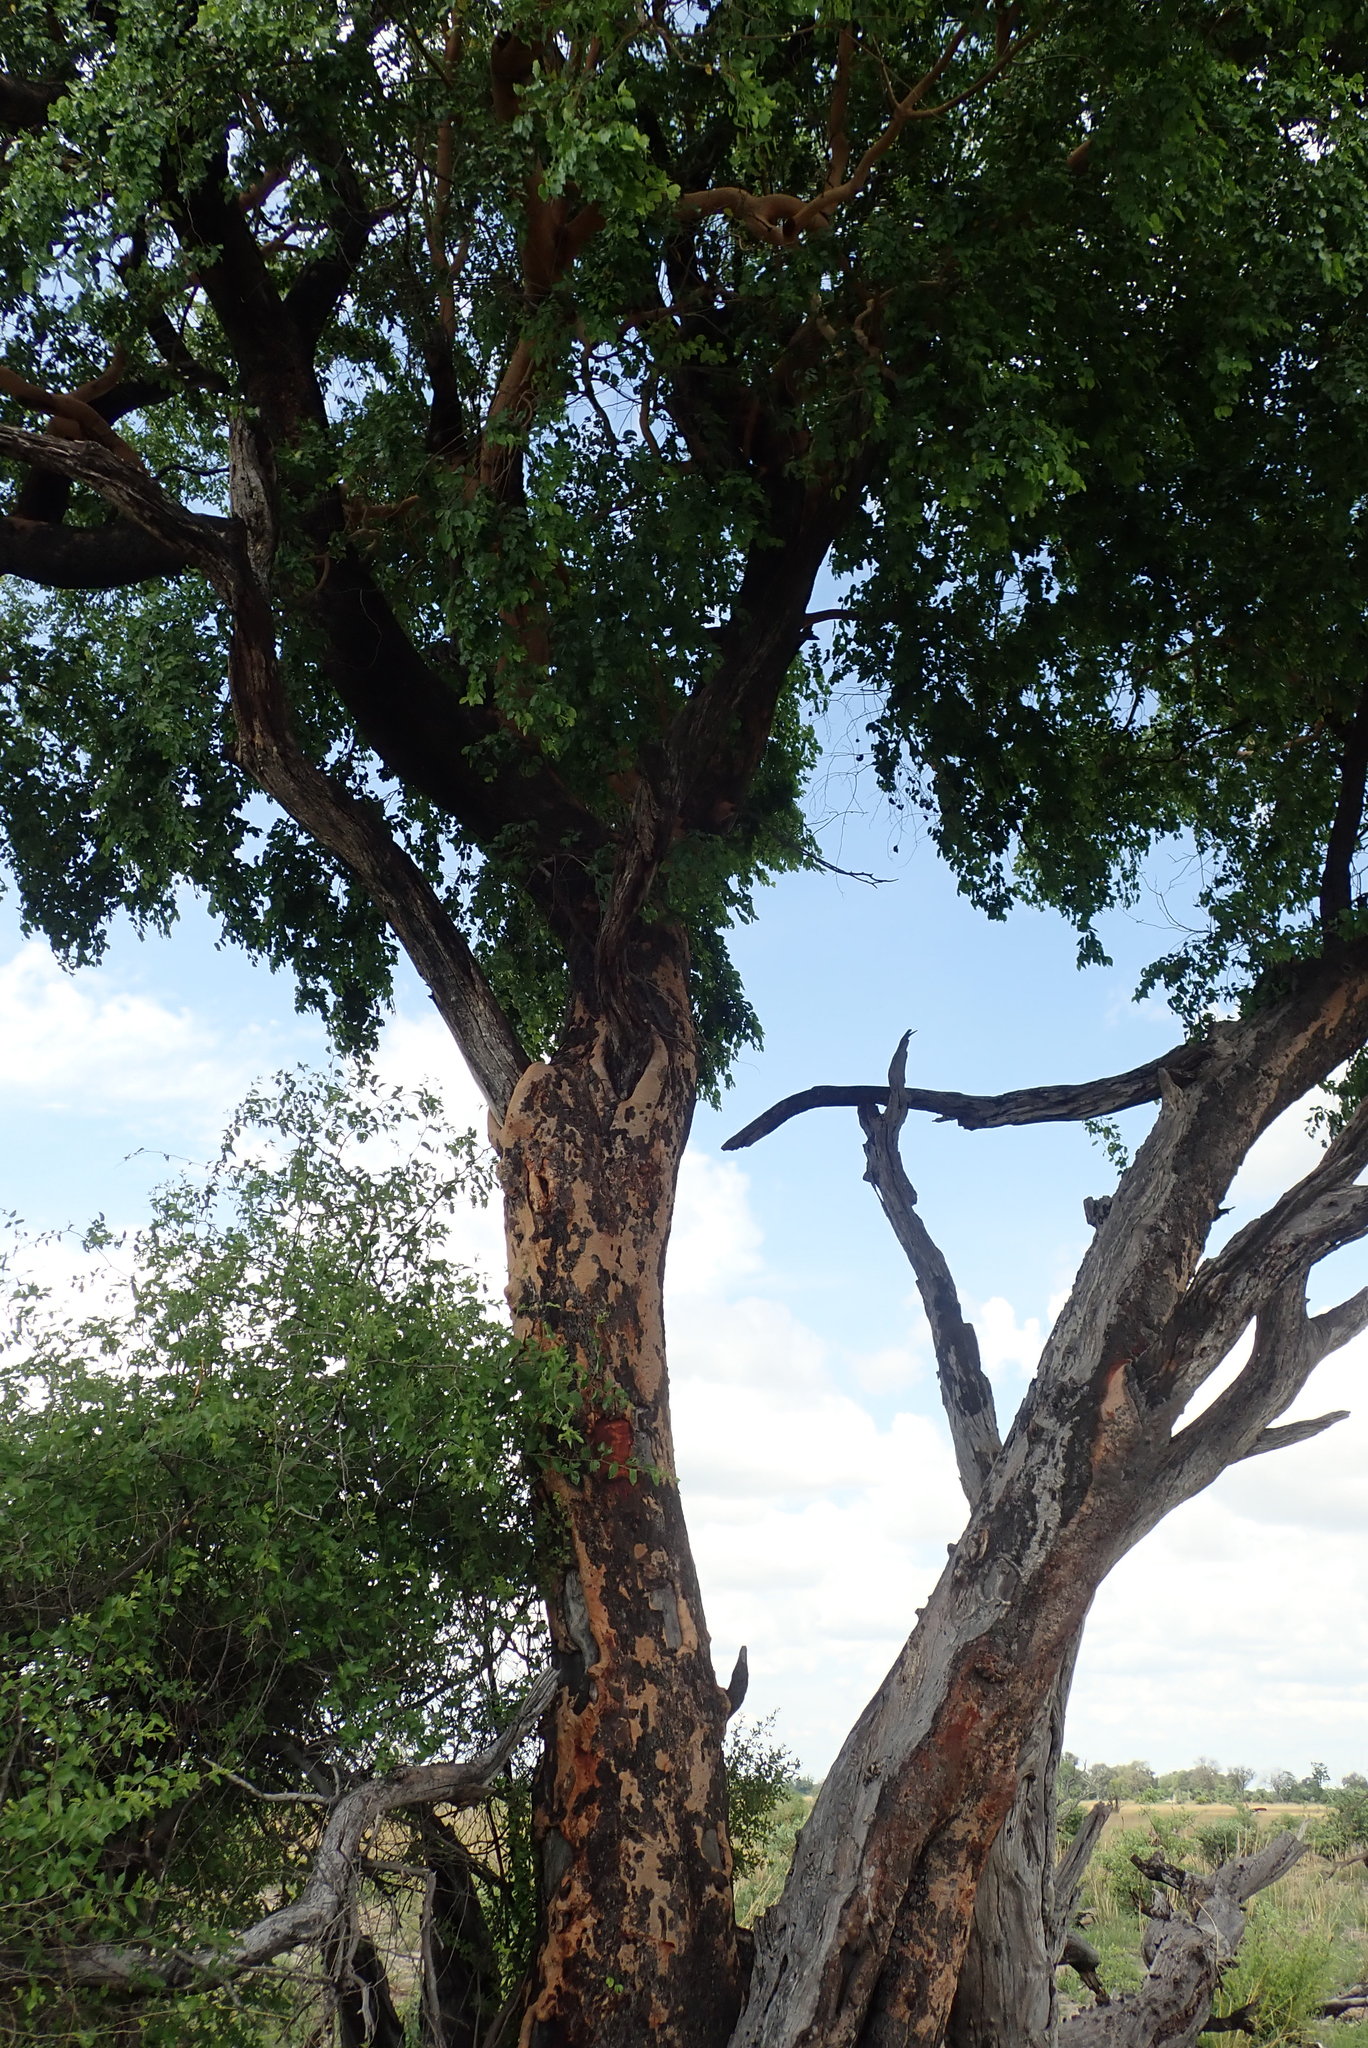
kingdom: Plantae
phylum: Tracheophyta
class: Magnoliopsida
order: Fabales
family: Fabaceae
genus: Guibourtia
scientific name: Guibourtia coleosperma
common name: African rosewoood
